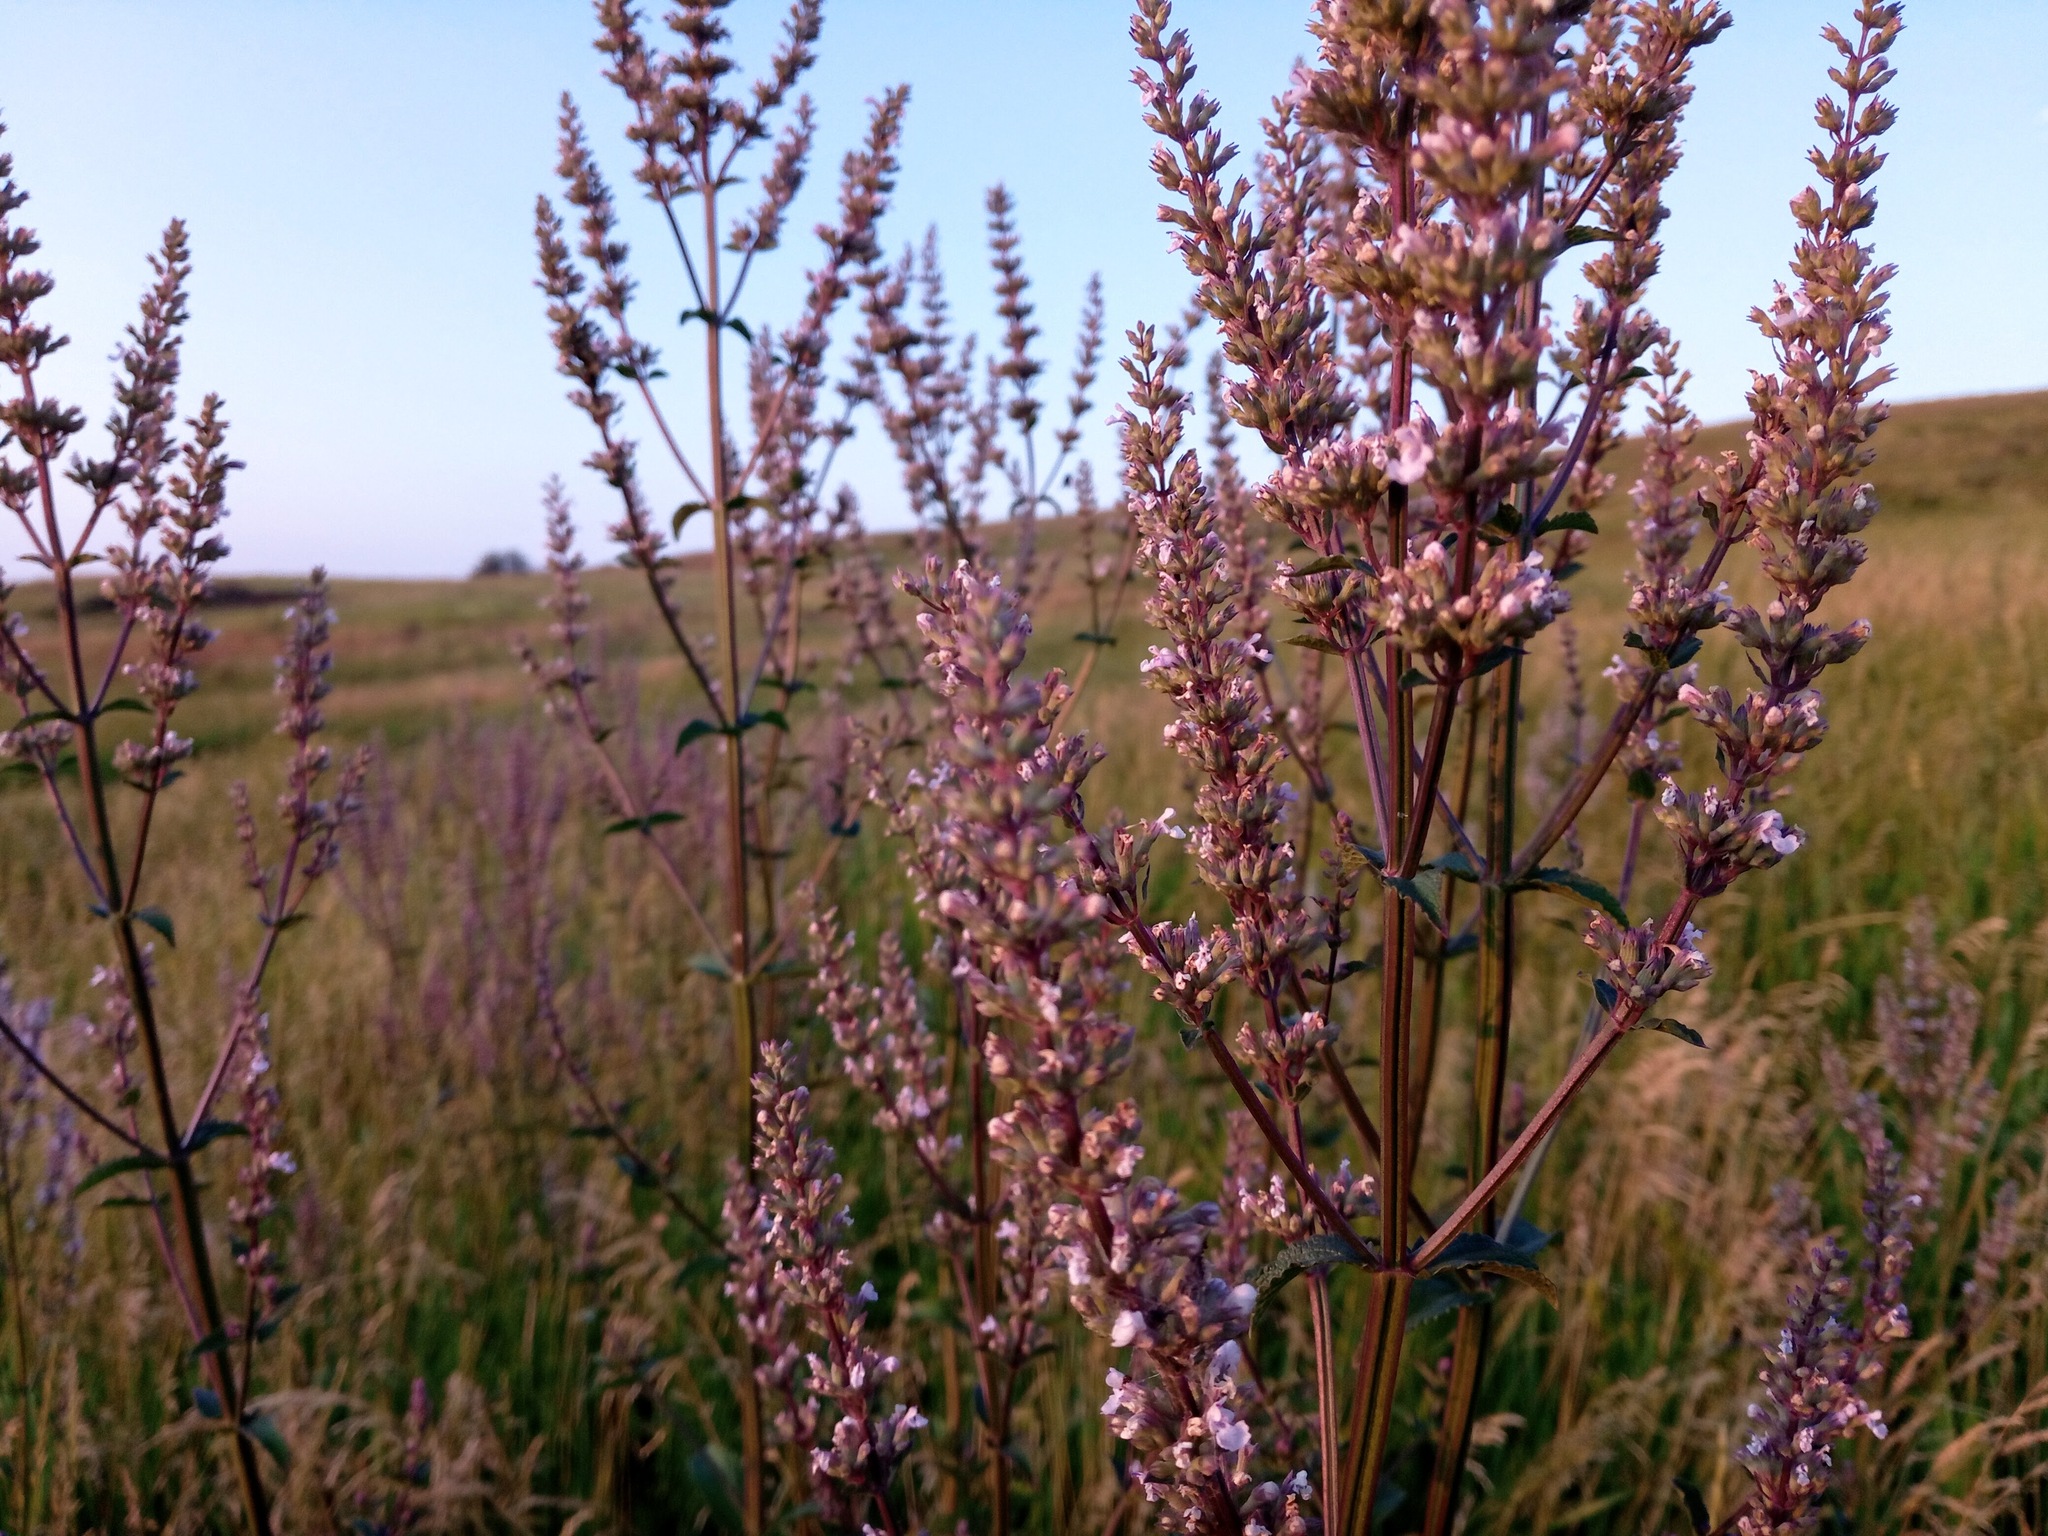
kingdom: Plantae
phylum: Tracheophyta
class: Magnoliopsida
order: Lamiales
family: Lamiaceae
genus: Nepeta
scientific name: Nepeta nuda
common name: Hairless catmint
